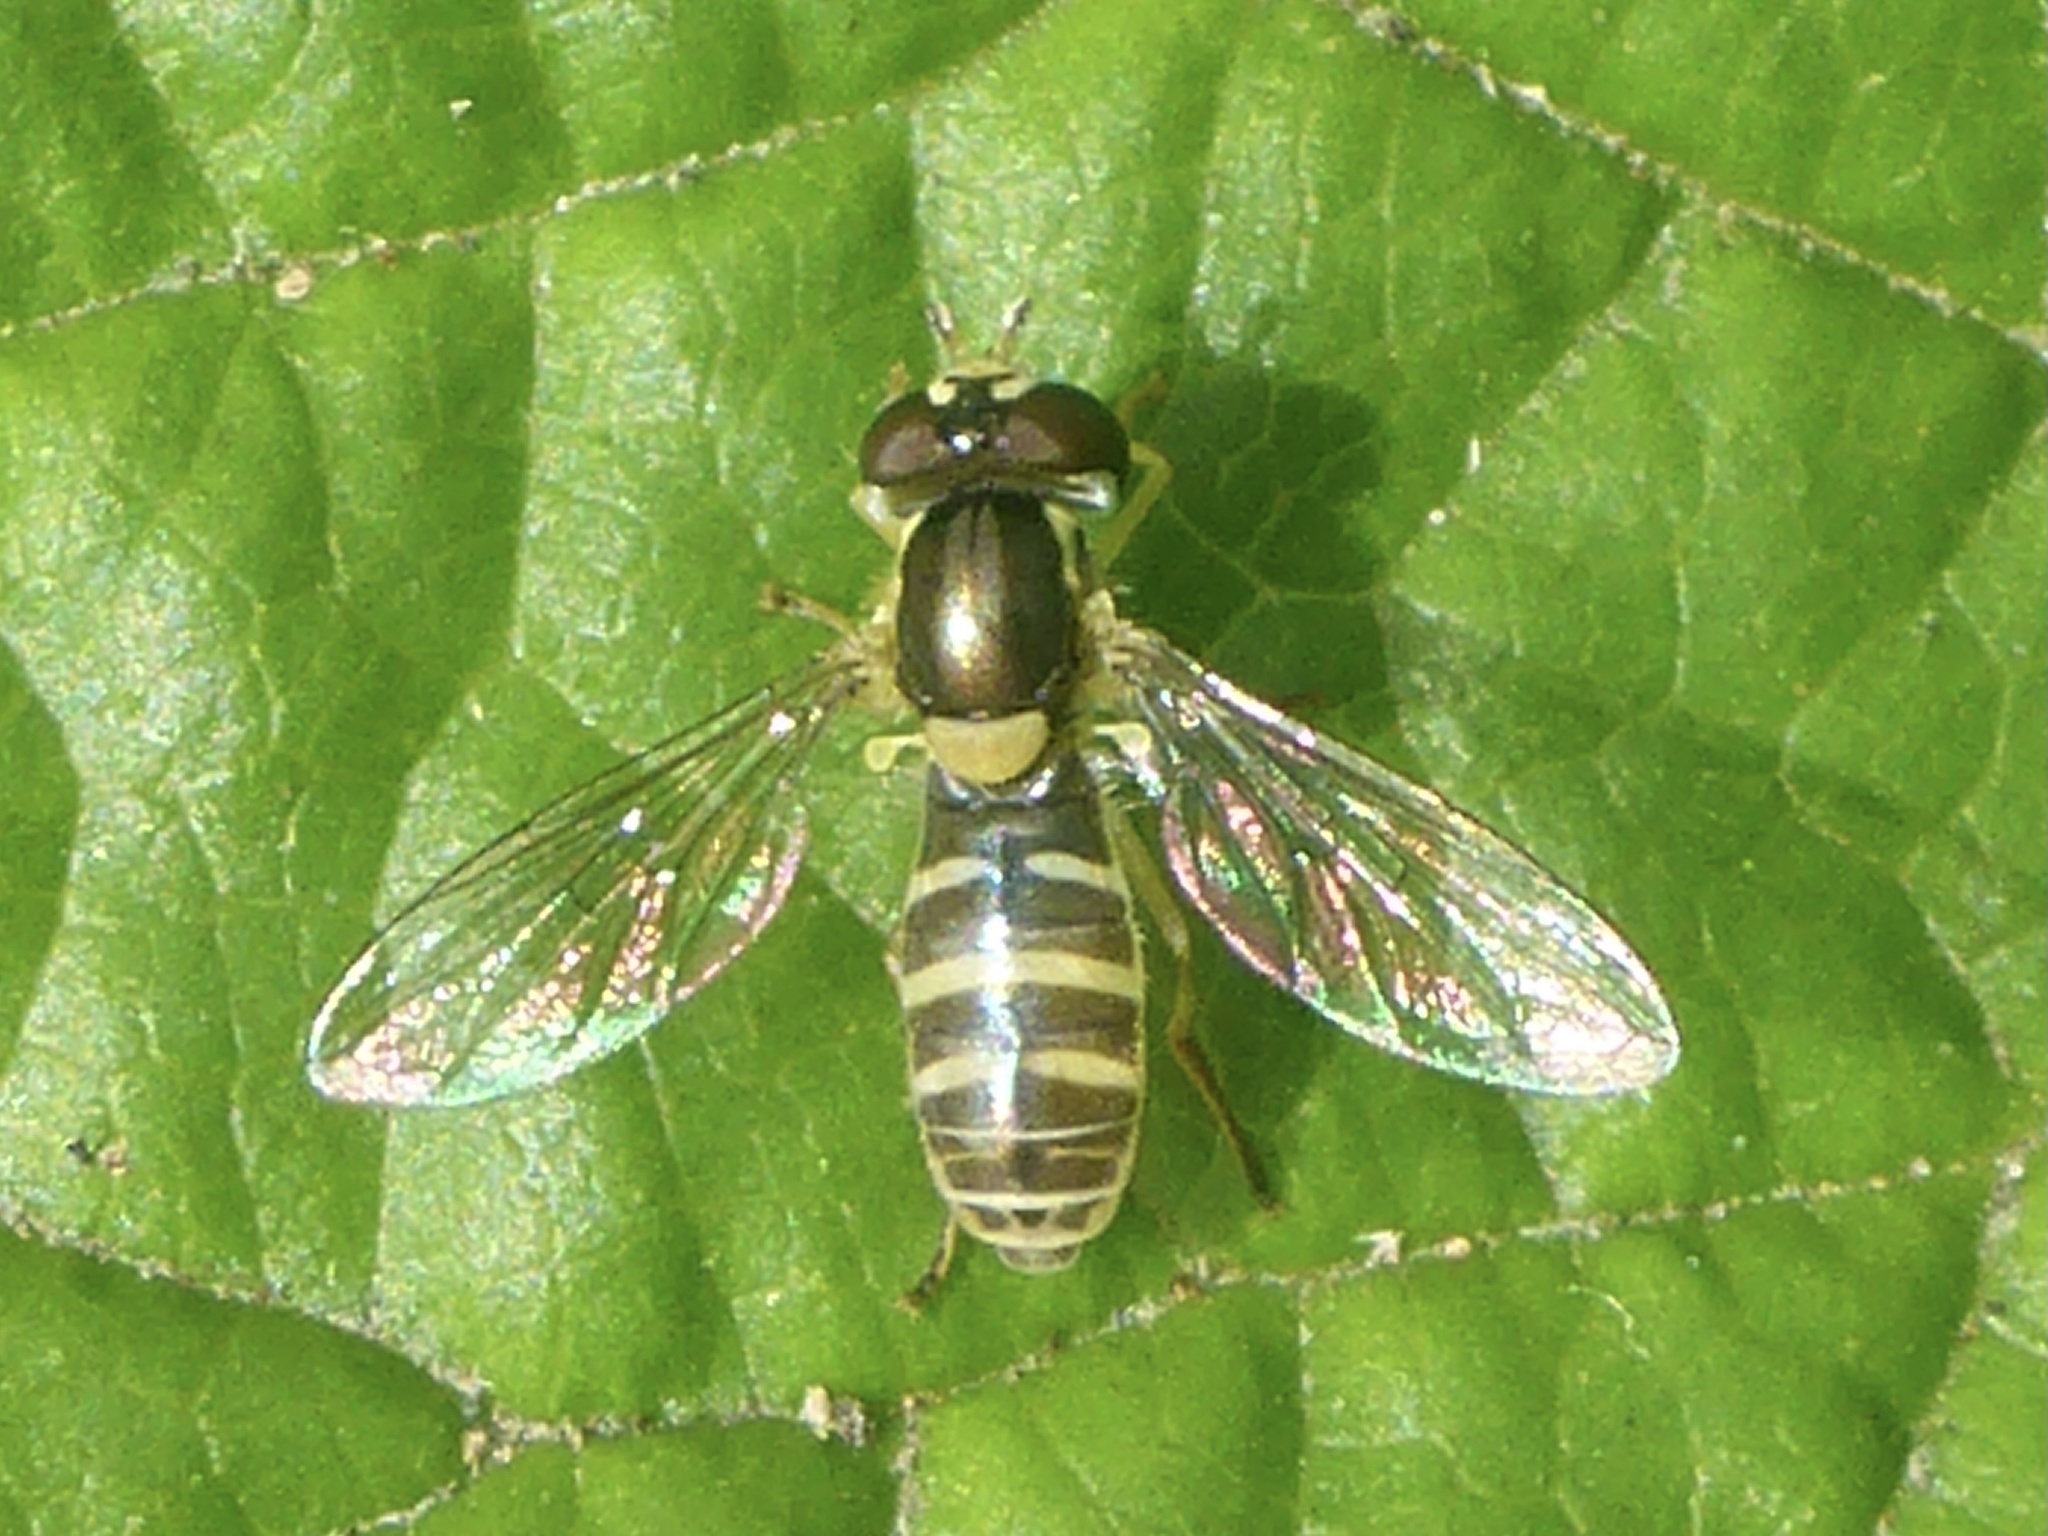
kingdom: Animalia
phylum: Arthropoda
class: Insecta
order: Diptera
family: Syrphidae
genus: Sphaerophoria
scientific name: Sphaerophoria sulphuripes
